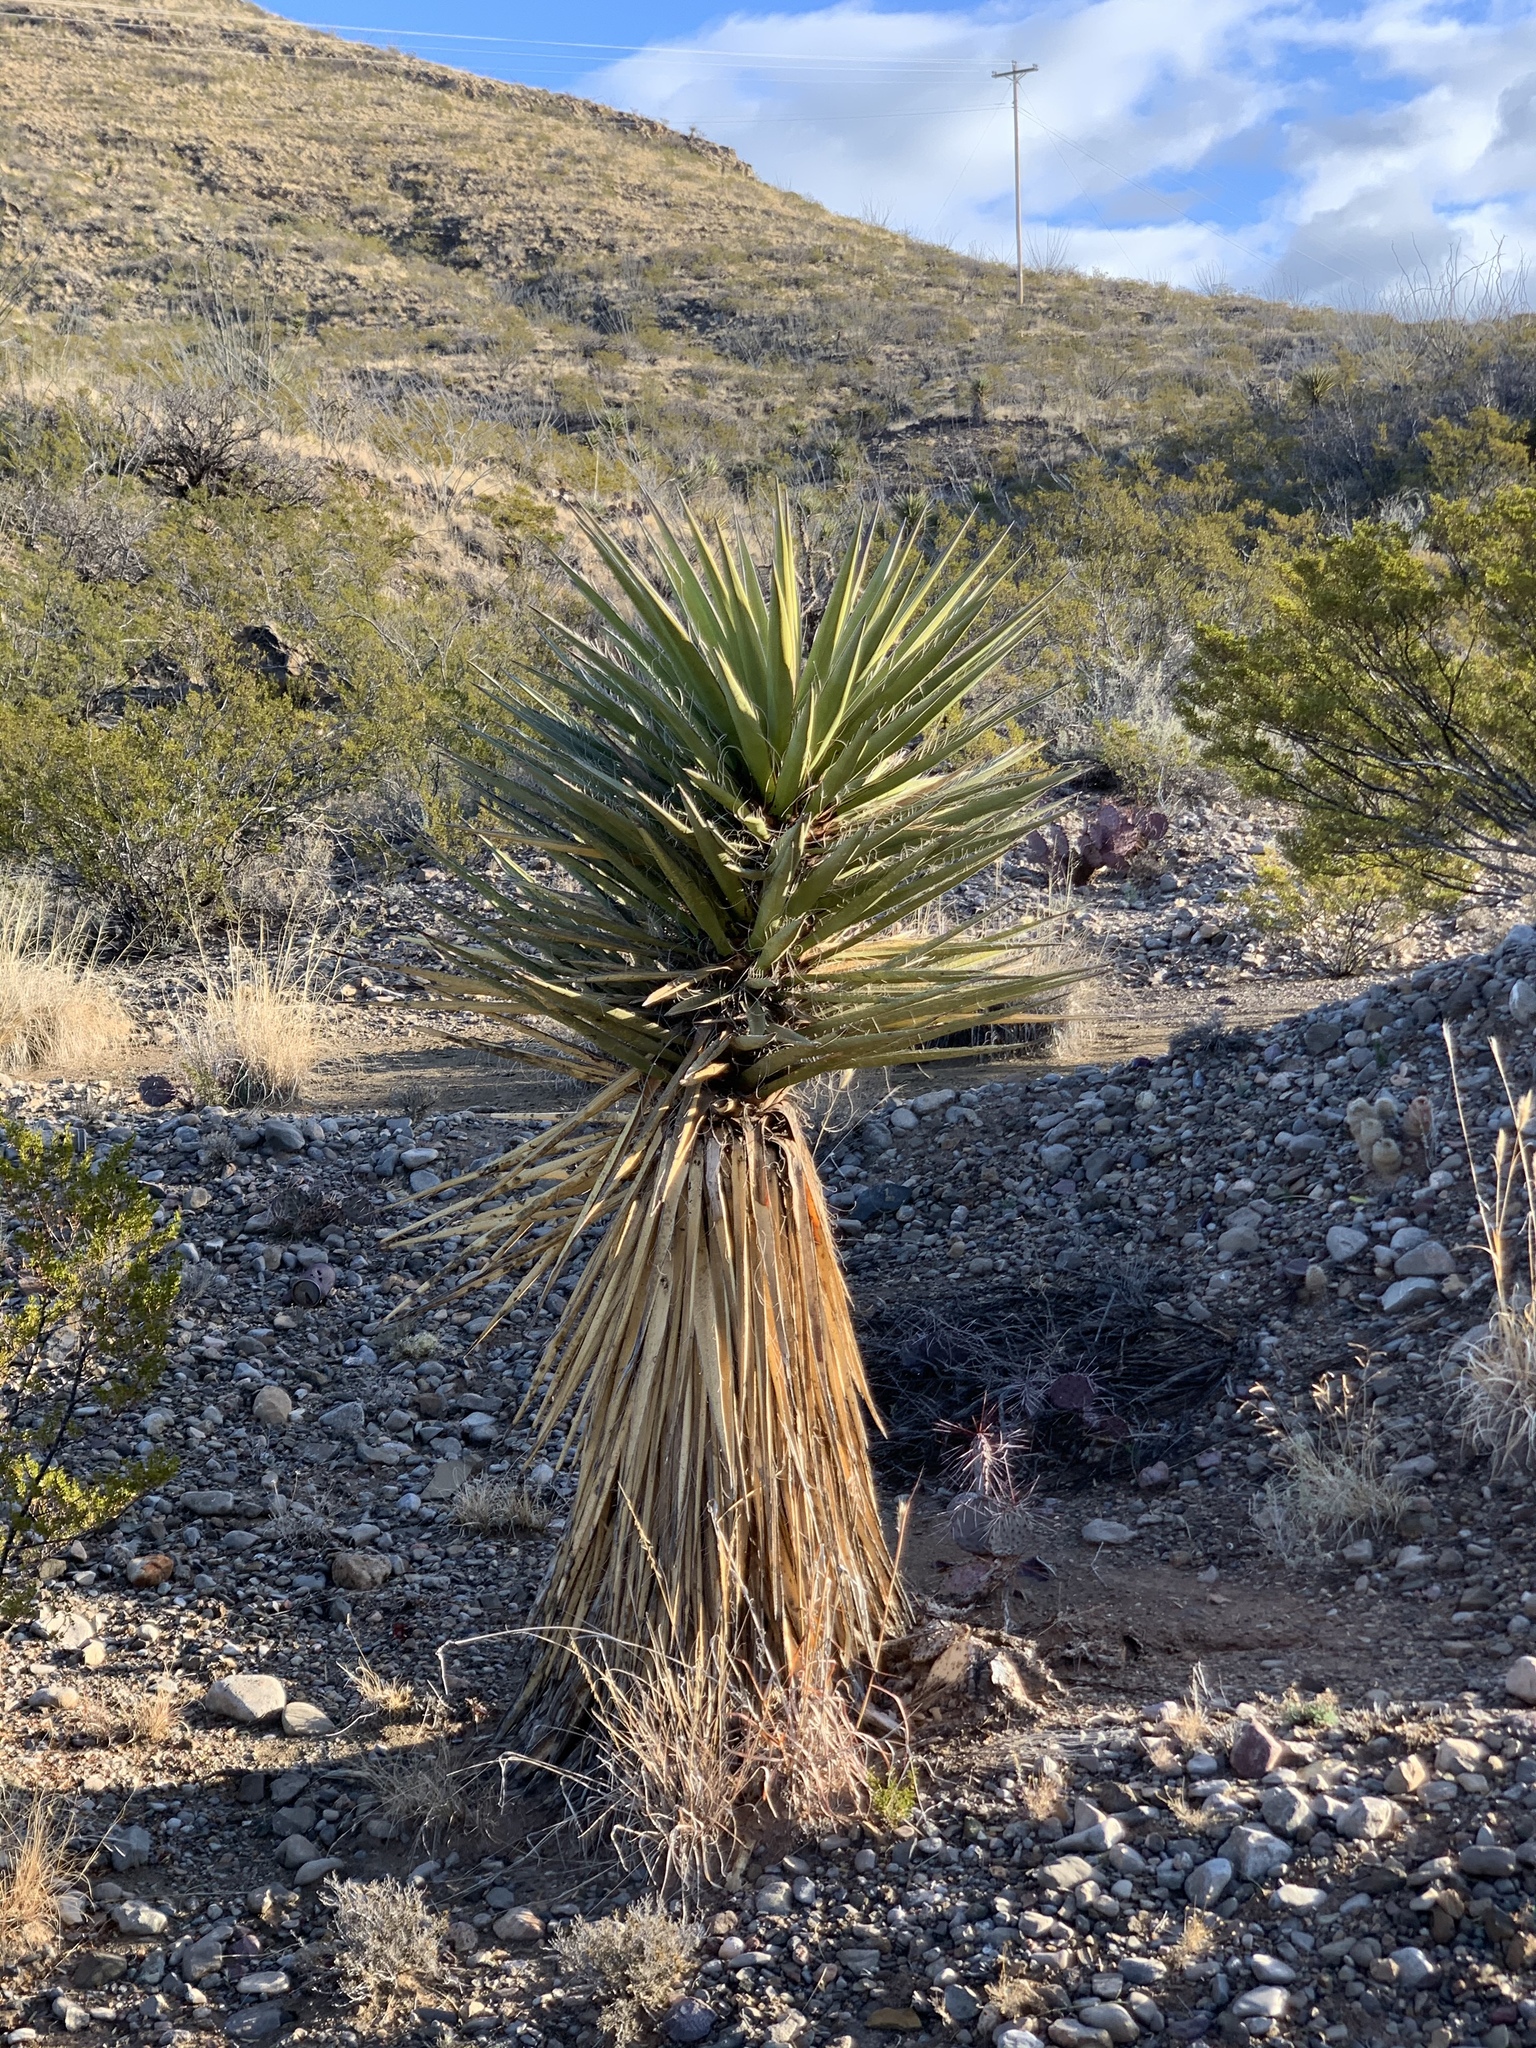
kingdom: Plantae
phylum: Tracheophyta
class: Liliopsida
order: Asparagales
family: Asparagaceae
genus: Yucca
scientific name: Yucca treculiana
